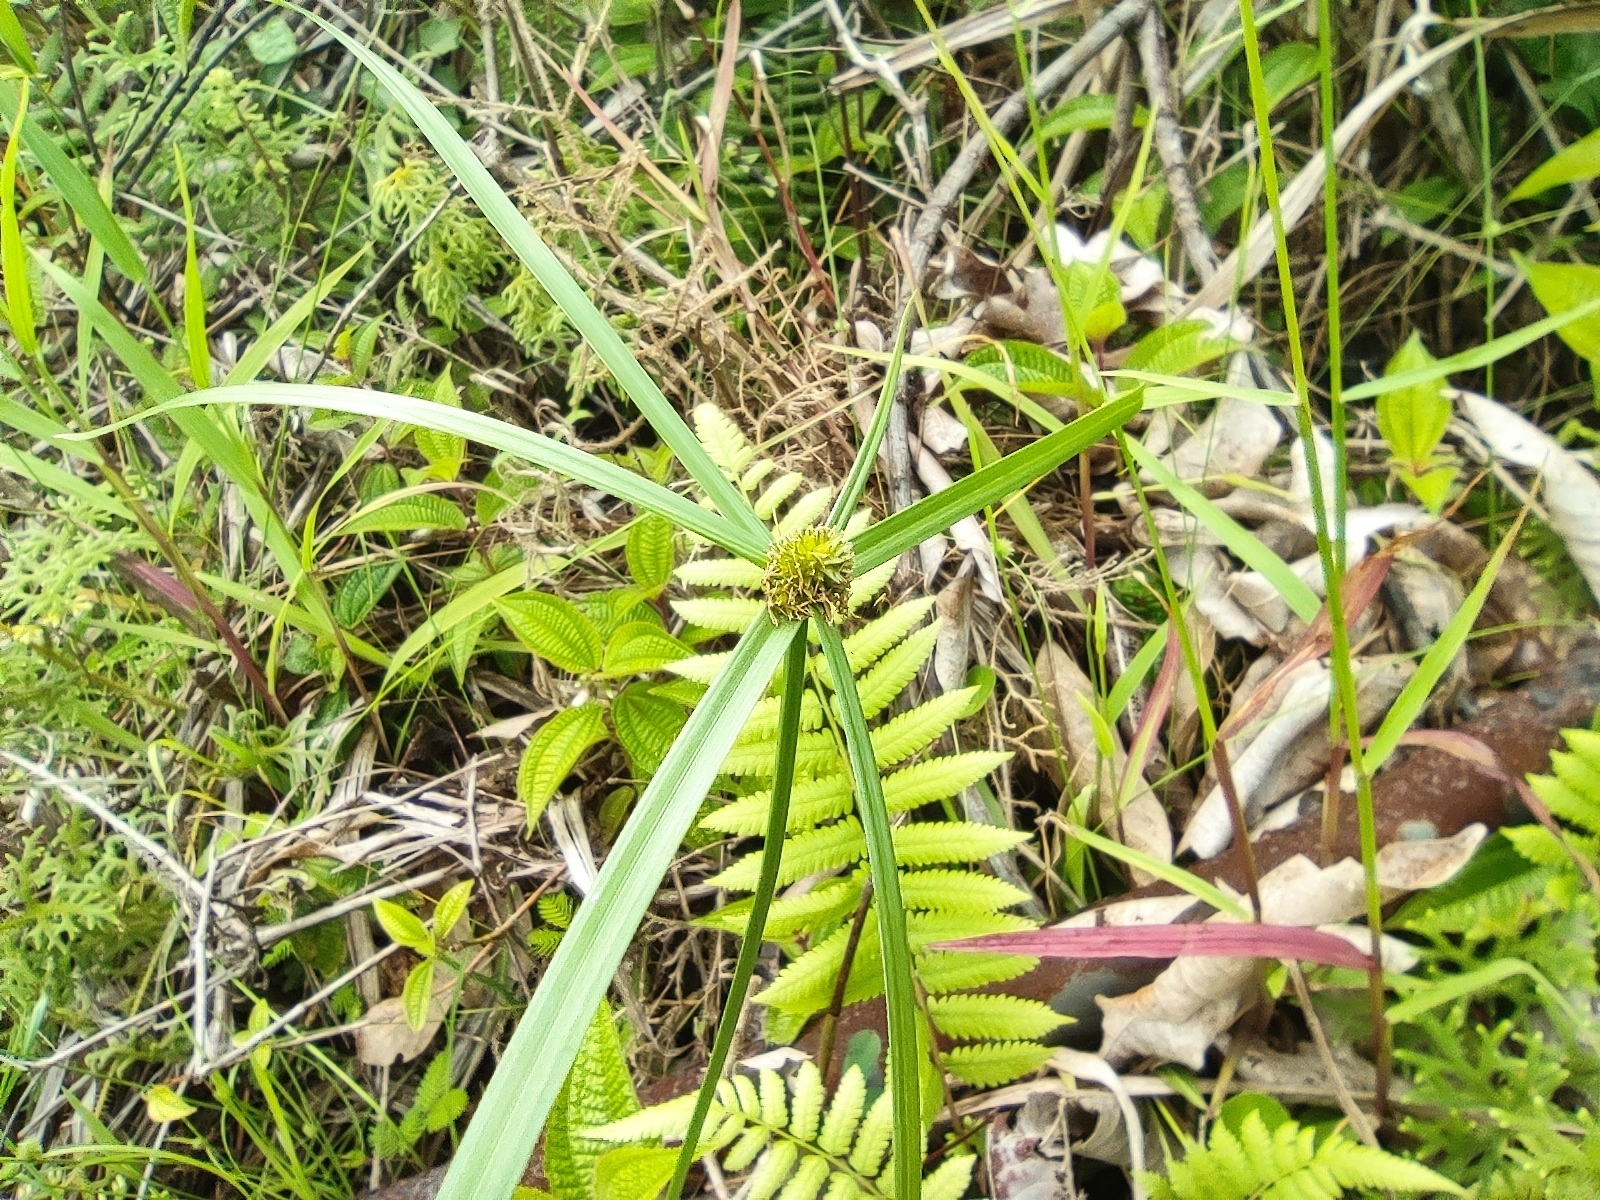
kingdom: Plantae
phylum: Tracheophyta
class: Liliopsida
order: Poales
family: Cyperaceae
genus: Cyperus
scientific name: Cyperus aromaticus
